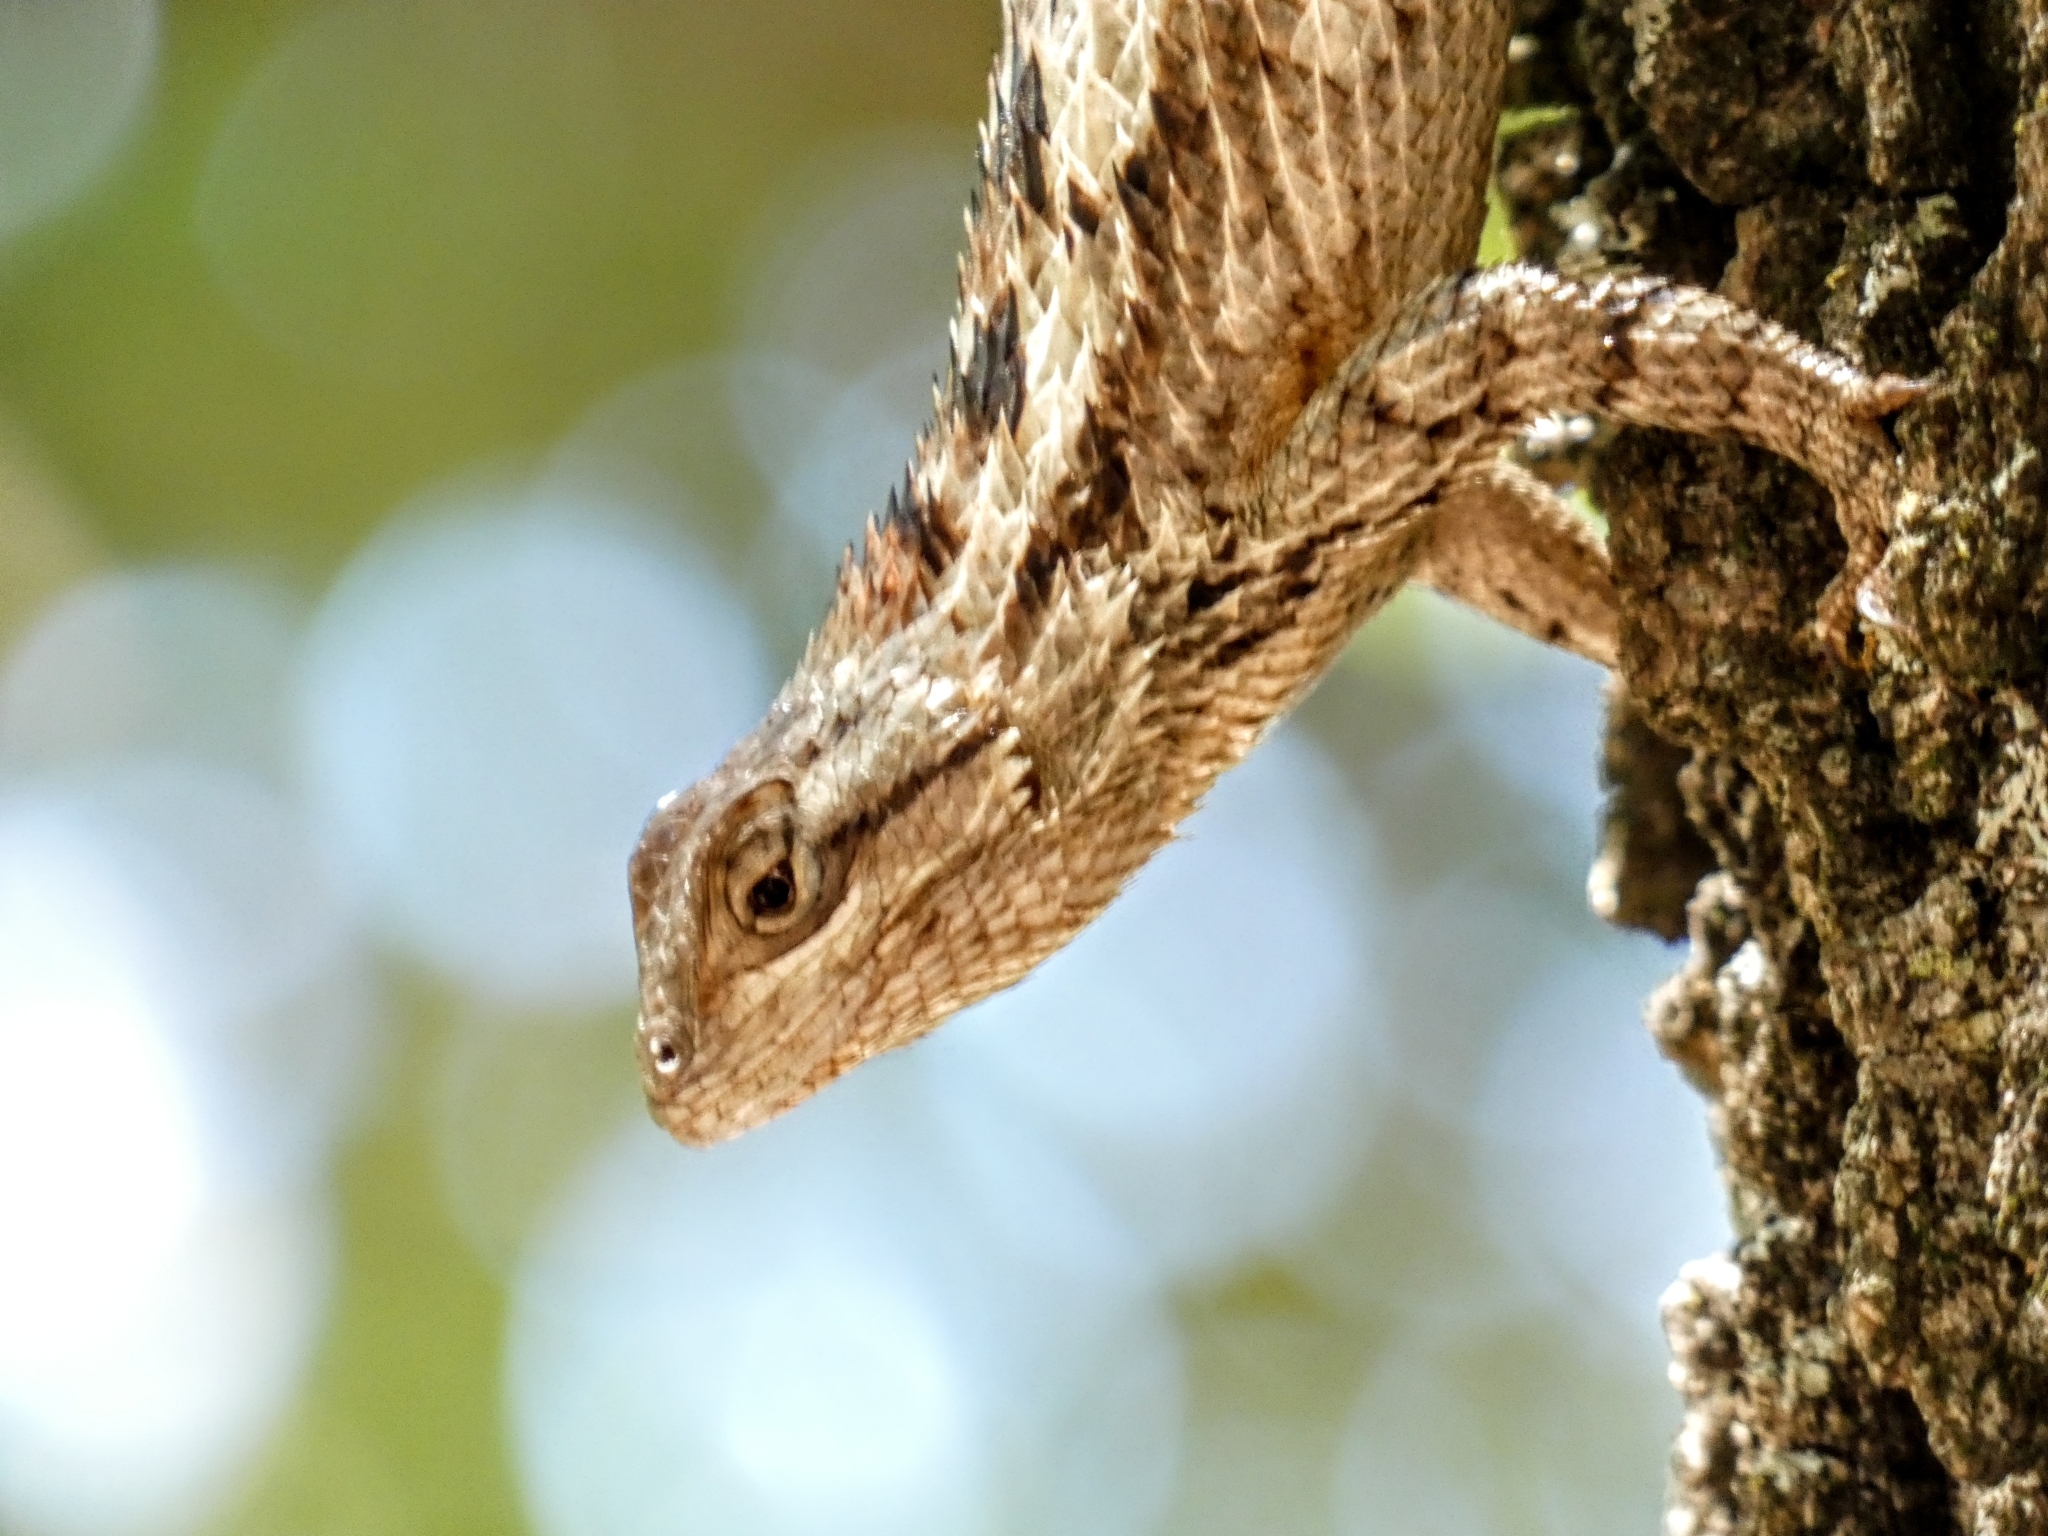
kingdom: Animalia
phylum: Chordata
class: Squamata
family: Phrynosomatidae
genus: Sceloporus
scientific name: Sceloporus olivaceus
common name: Texas spiny lizard
